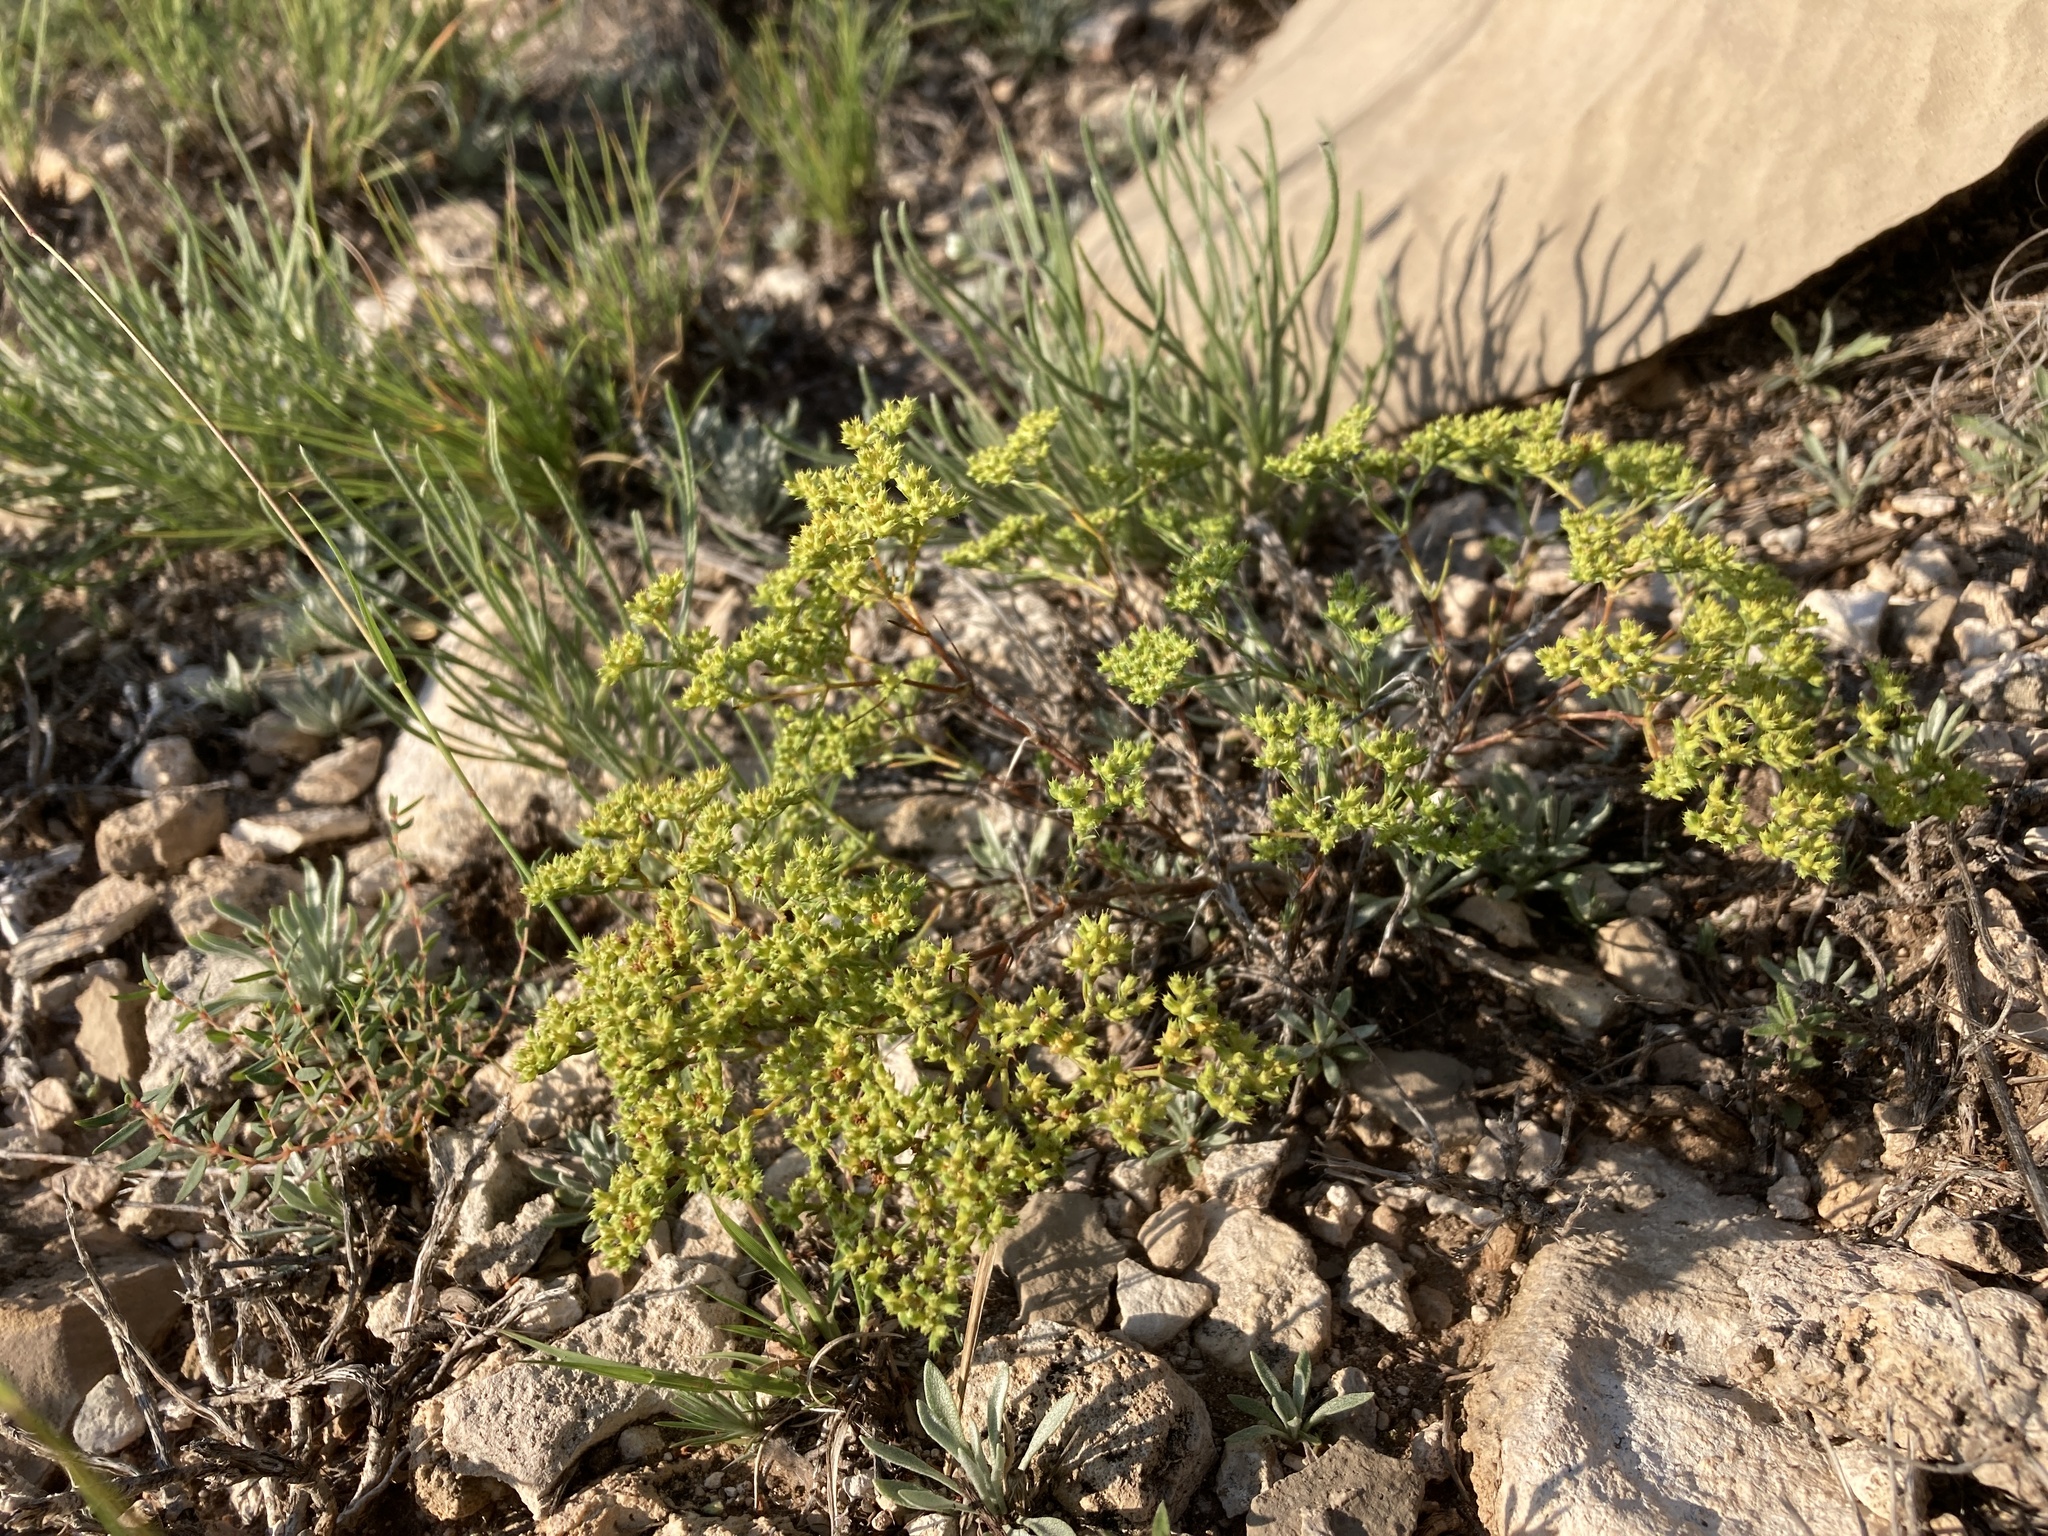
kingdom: Plantae
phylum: Tracheophyta
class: Magnoliopsida
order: Caryophyllales
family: Caryophyllaceae
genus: Paronychia
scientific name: Paronychia jamesii
